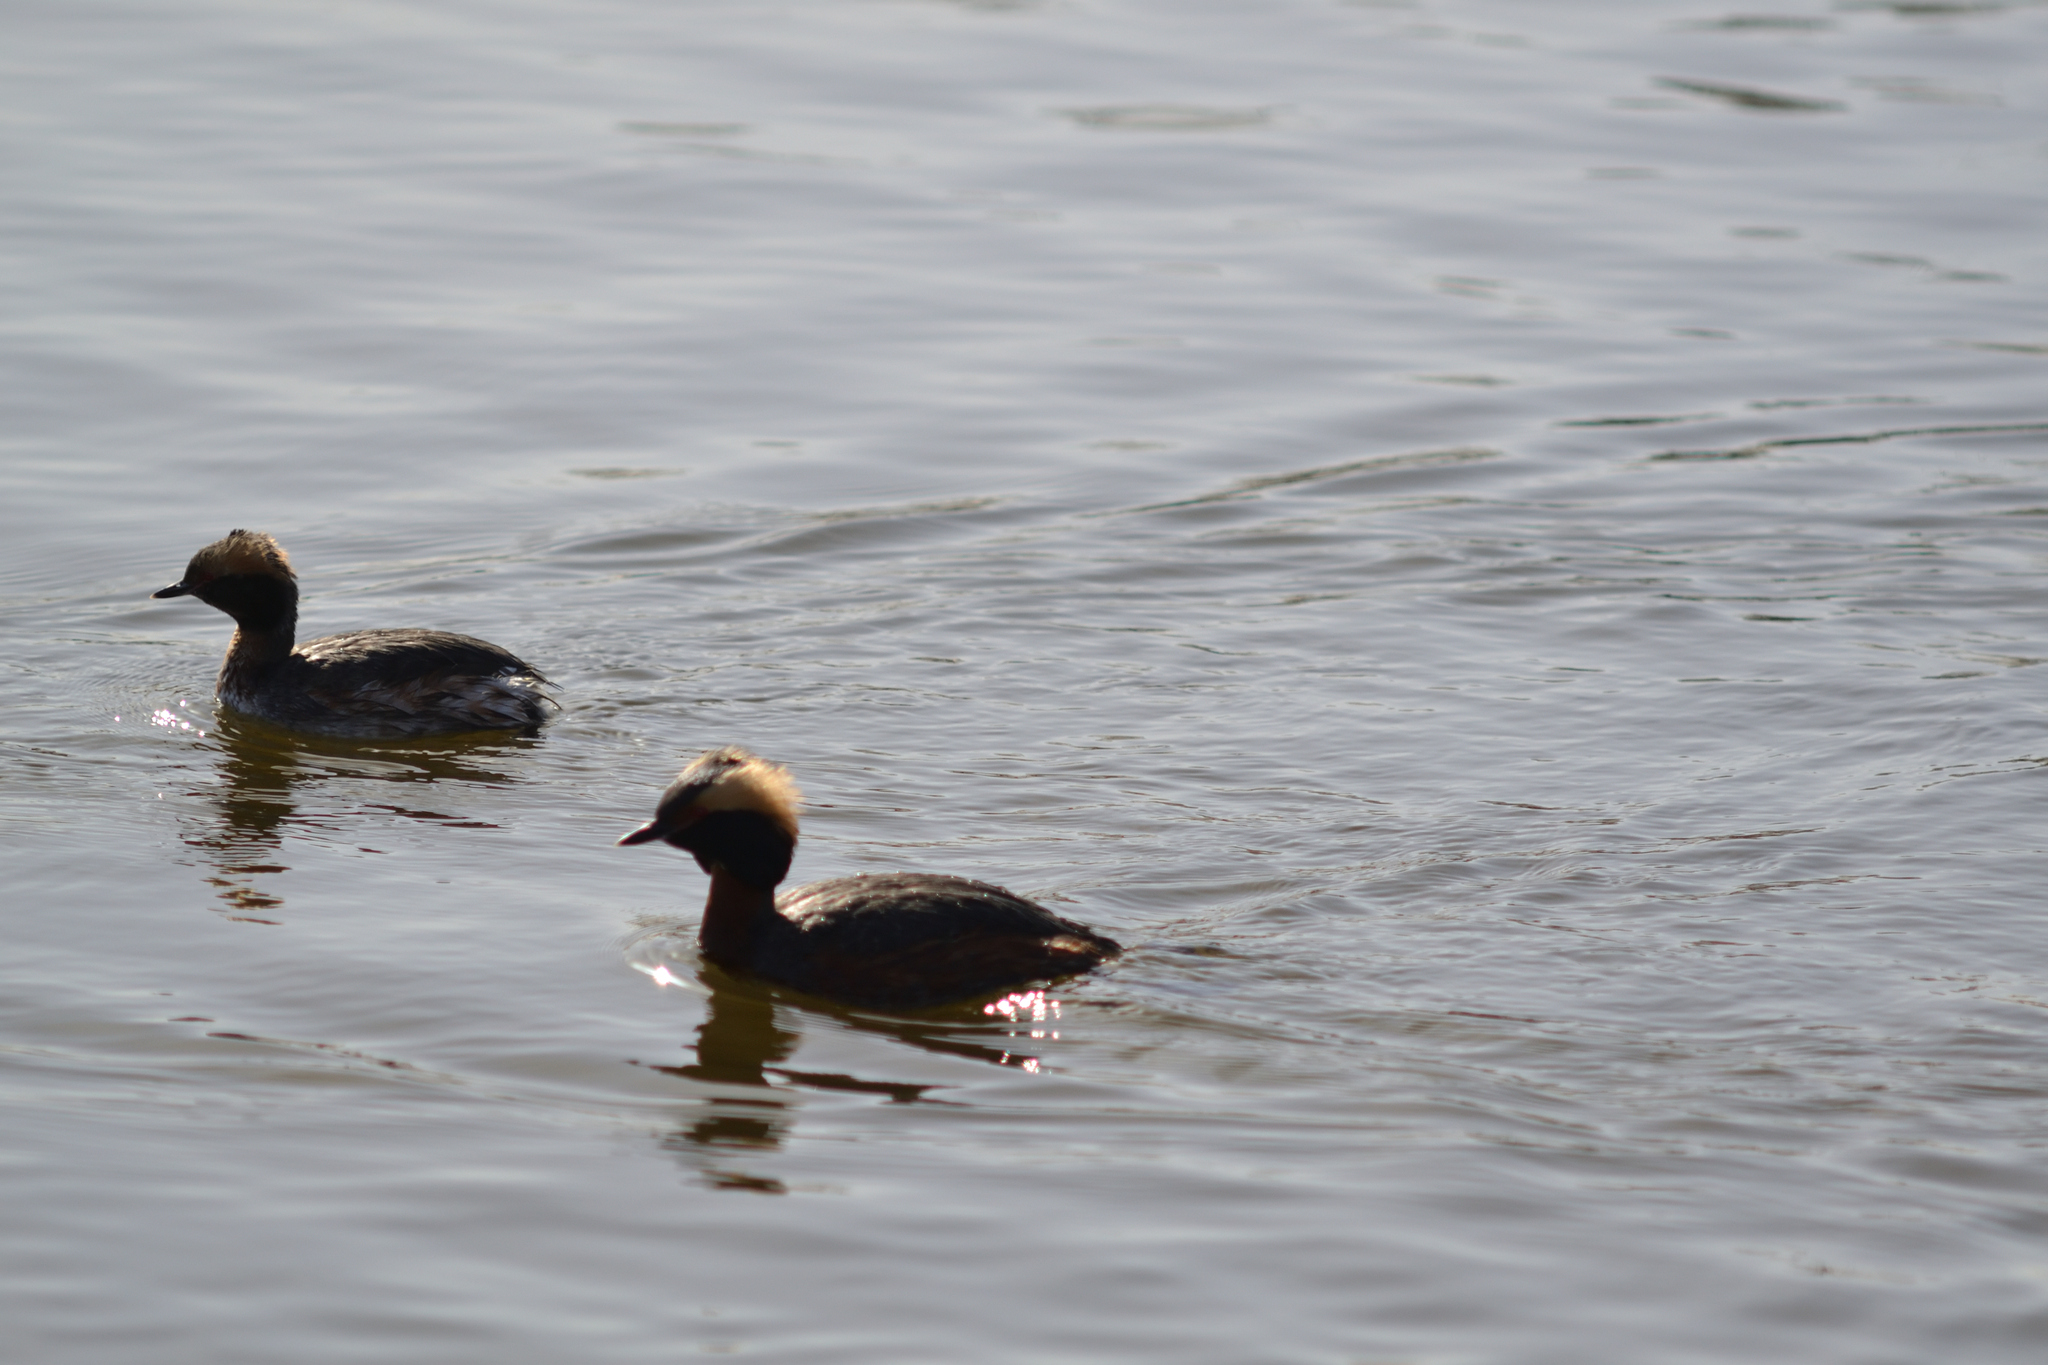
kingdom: Animalia
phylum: Chordata
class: Aves
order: Podicipediformes
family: Podicipedidae
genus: Podiceps
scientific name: Podiceps auritus
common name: Horned grebe
